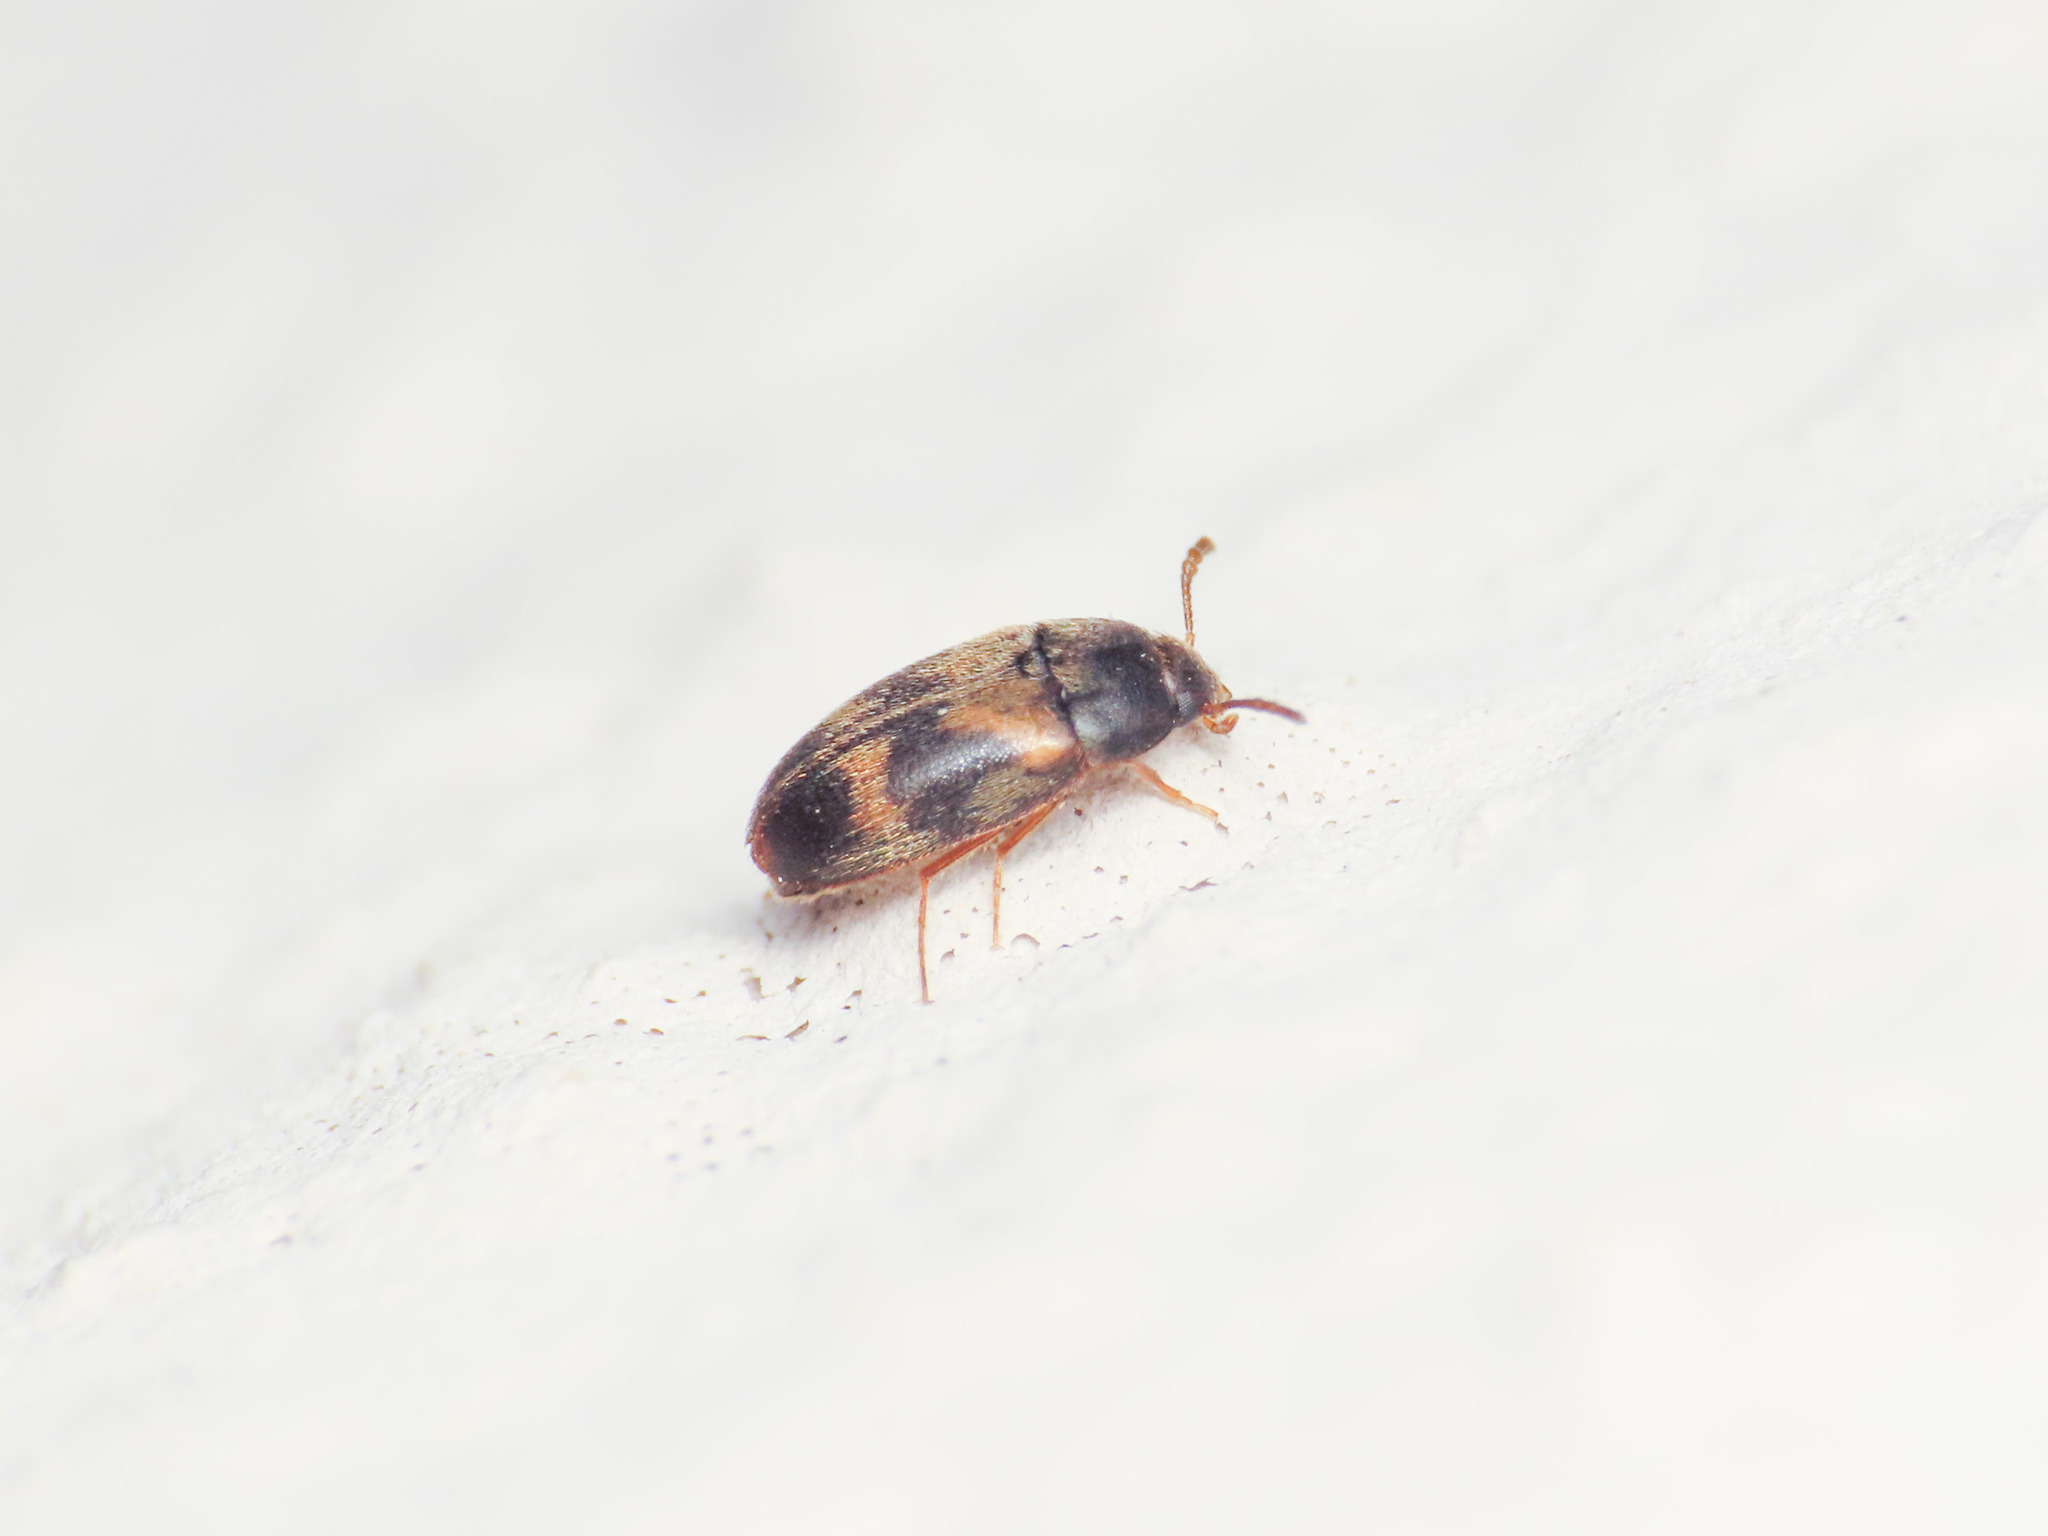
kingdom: Animalia
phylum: Arthropoda
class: Insecta
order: Coleoptera
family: Mycetophagidae
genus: Litargus
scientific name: Litargus balteatus
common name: Stored grain hairy fungus beetle
